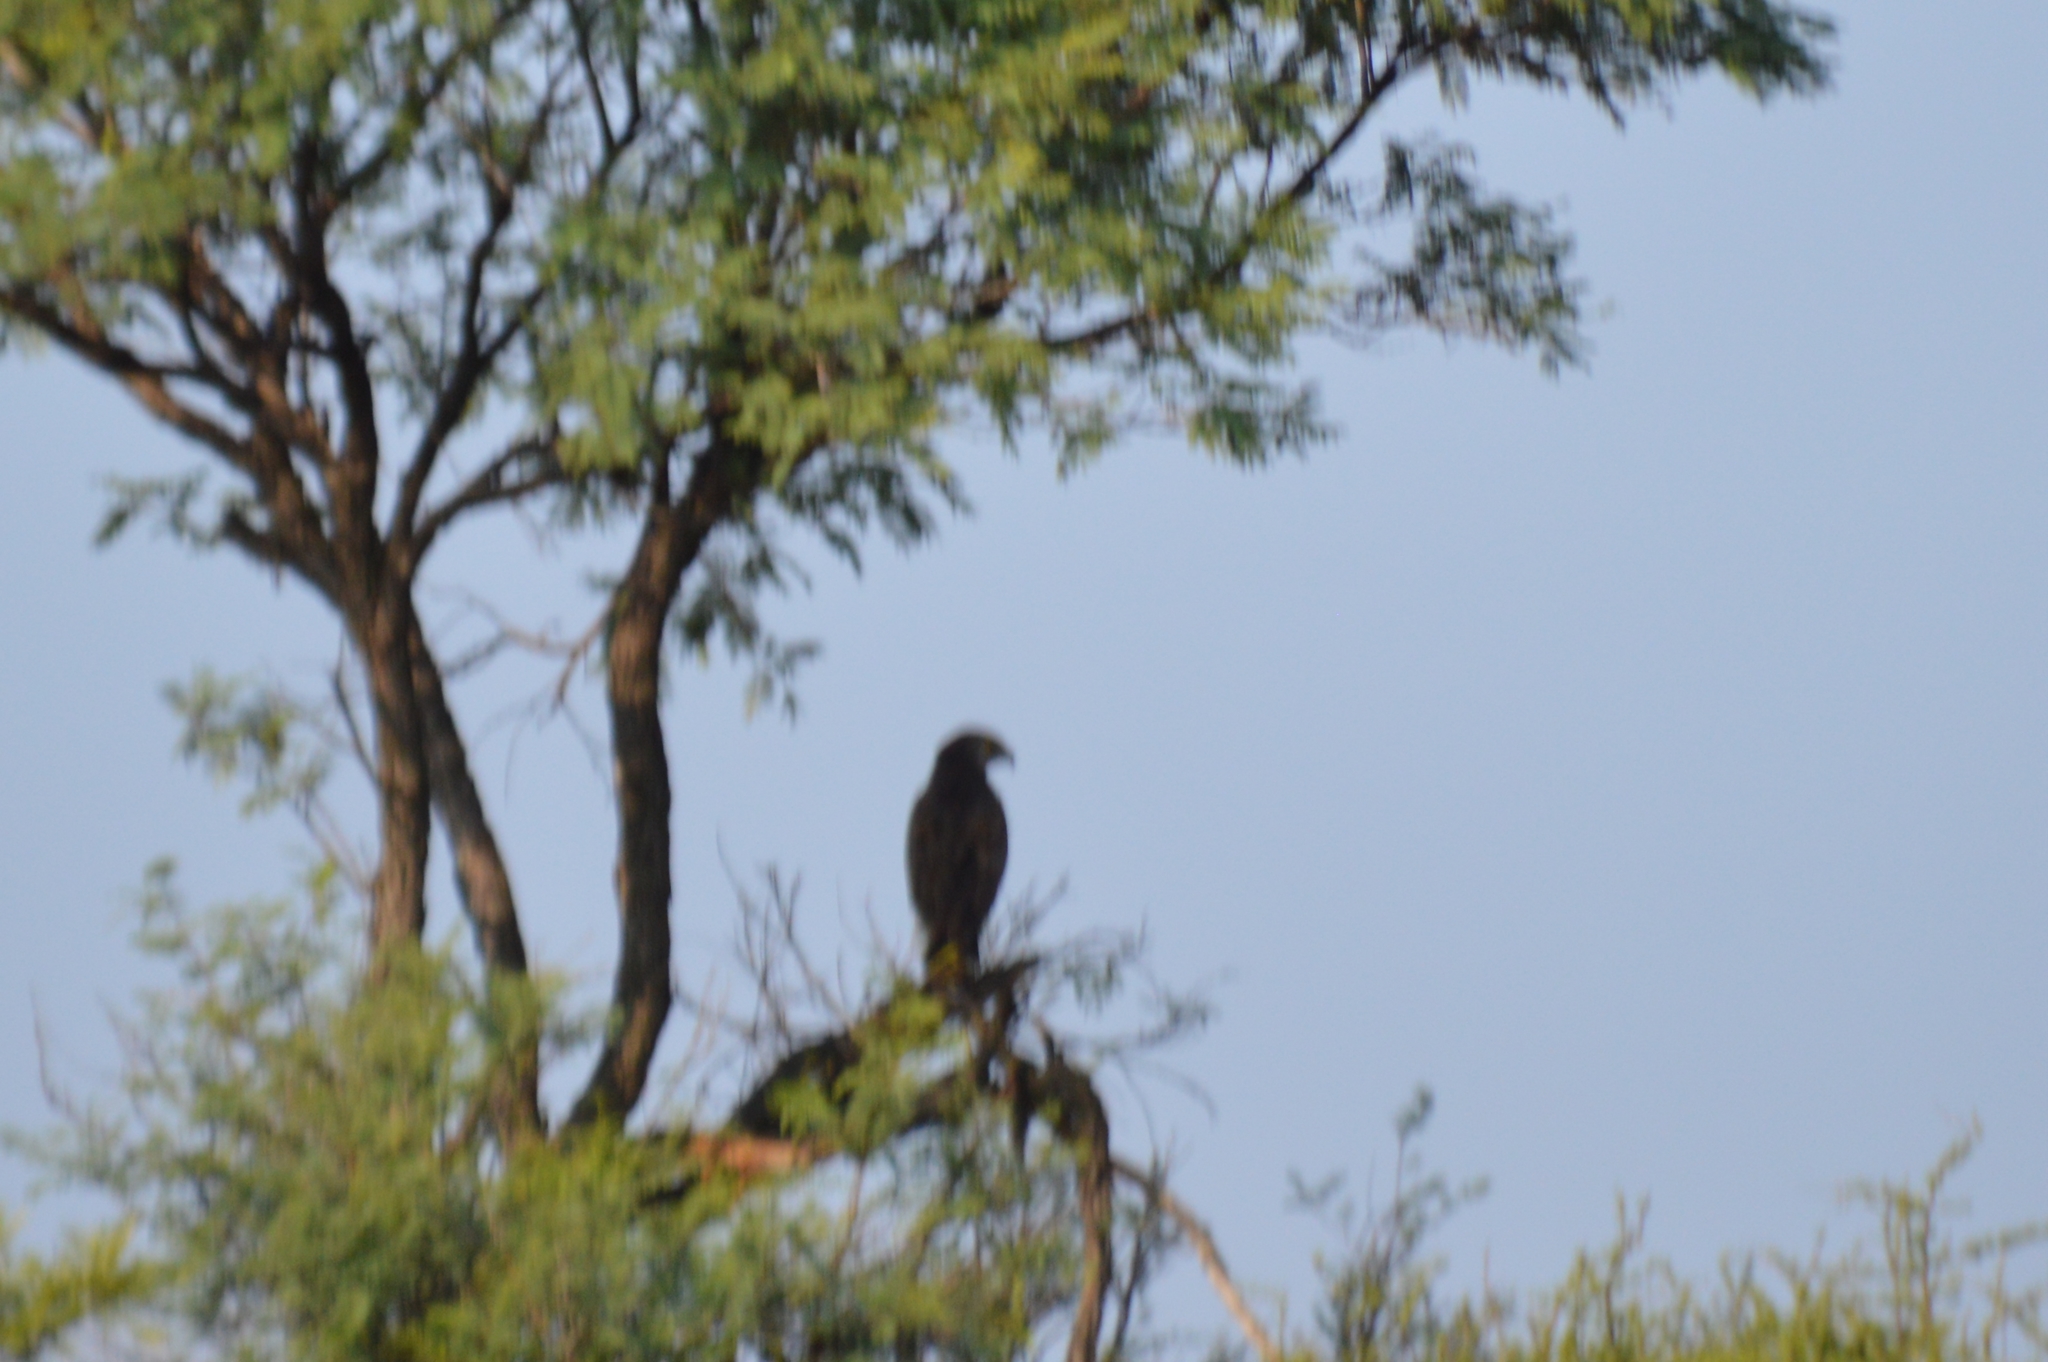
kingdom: Animalia
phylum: Chordata
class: Aves
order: Accipitriformes
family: Accipitridae
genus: Polyboroides
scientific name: Polyboroides typus
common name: African harrier-hawk
